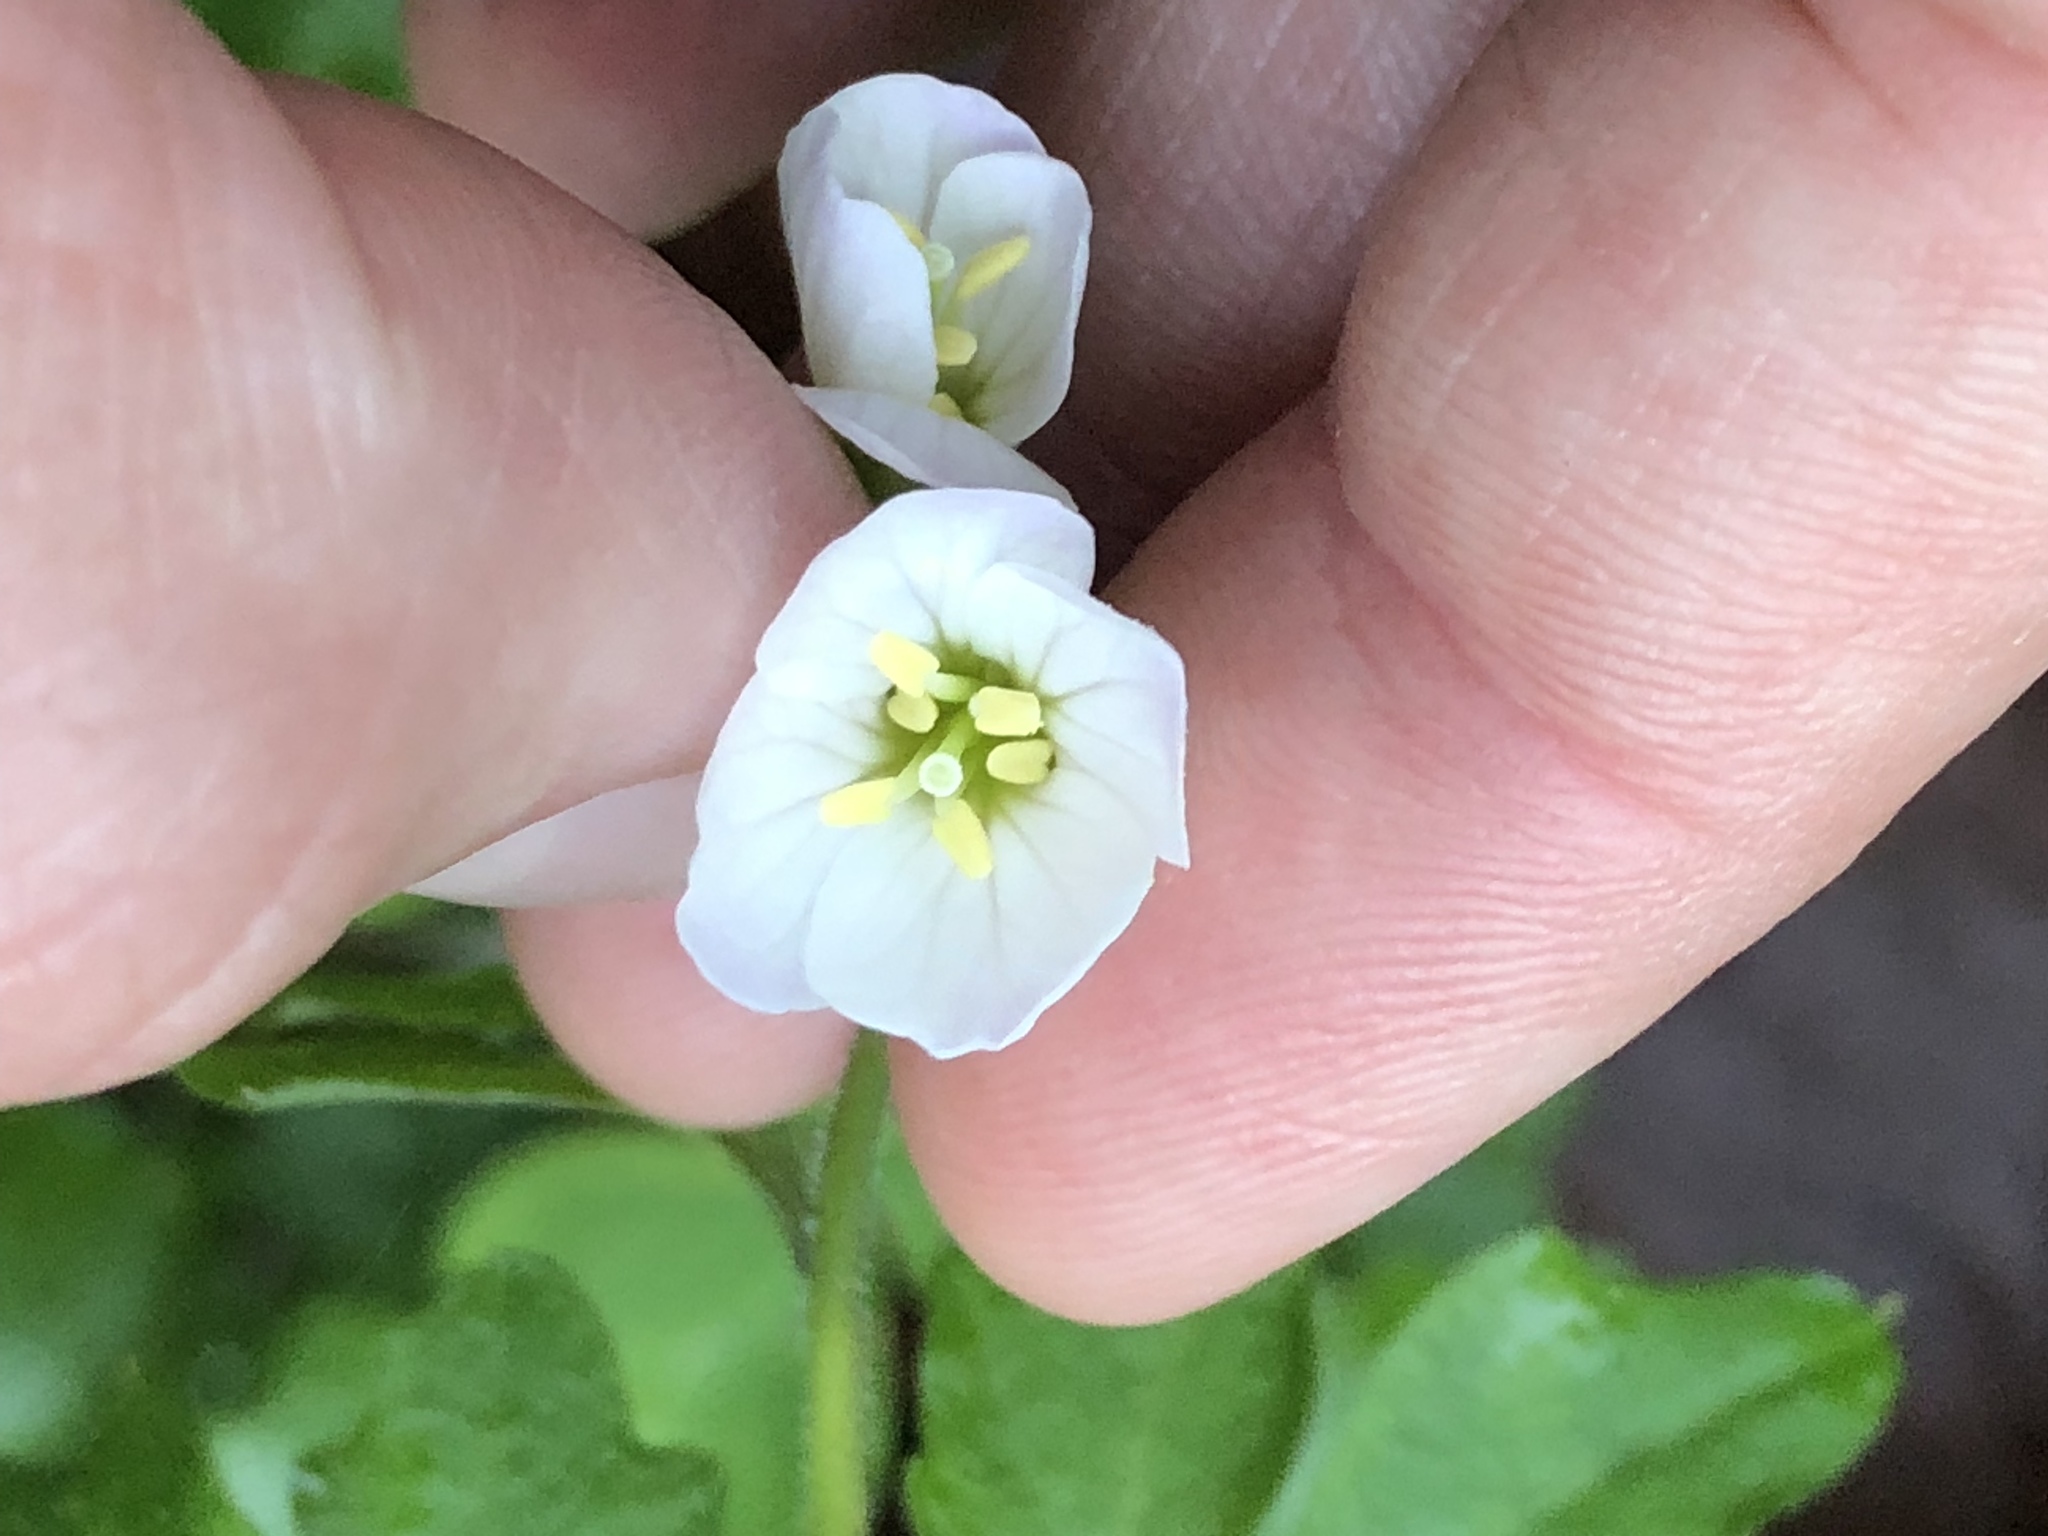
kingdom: Plantae
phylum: Tracheophyta
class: Magnoliopsida
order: Brassicales
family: Brassicaceae
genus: Cardamine
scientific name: Cardamine californica
